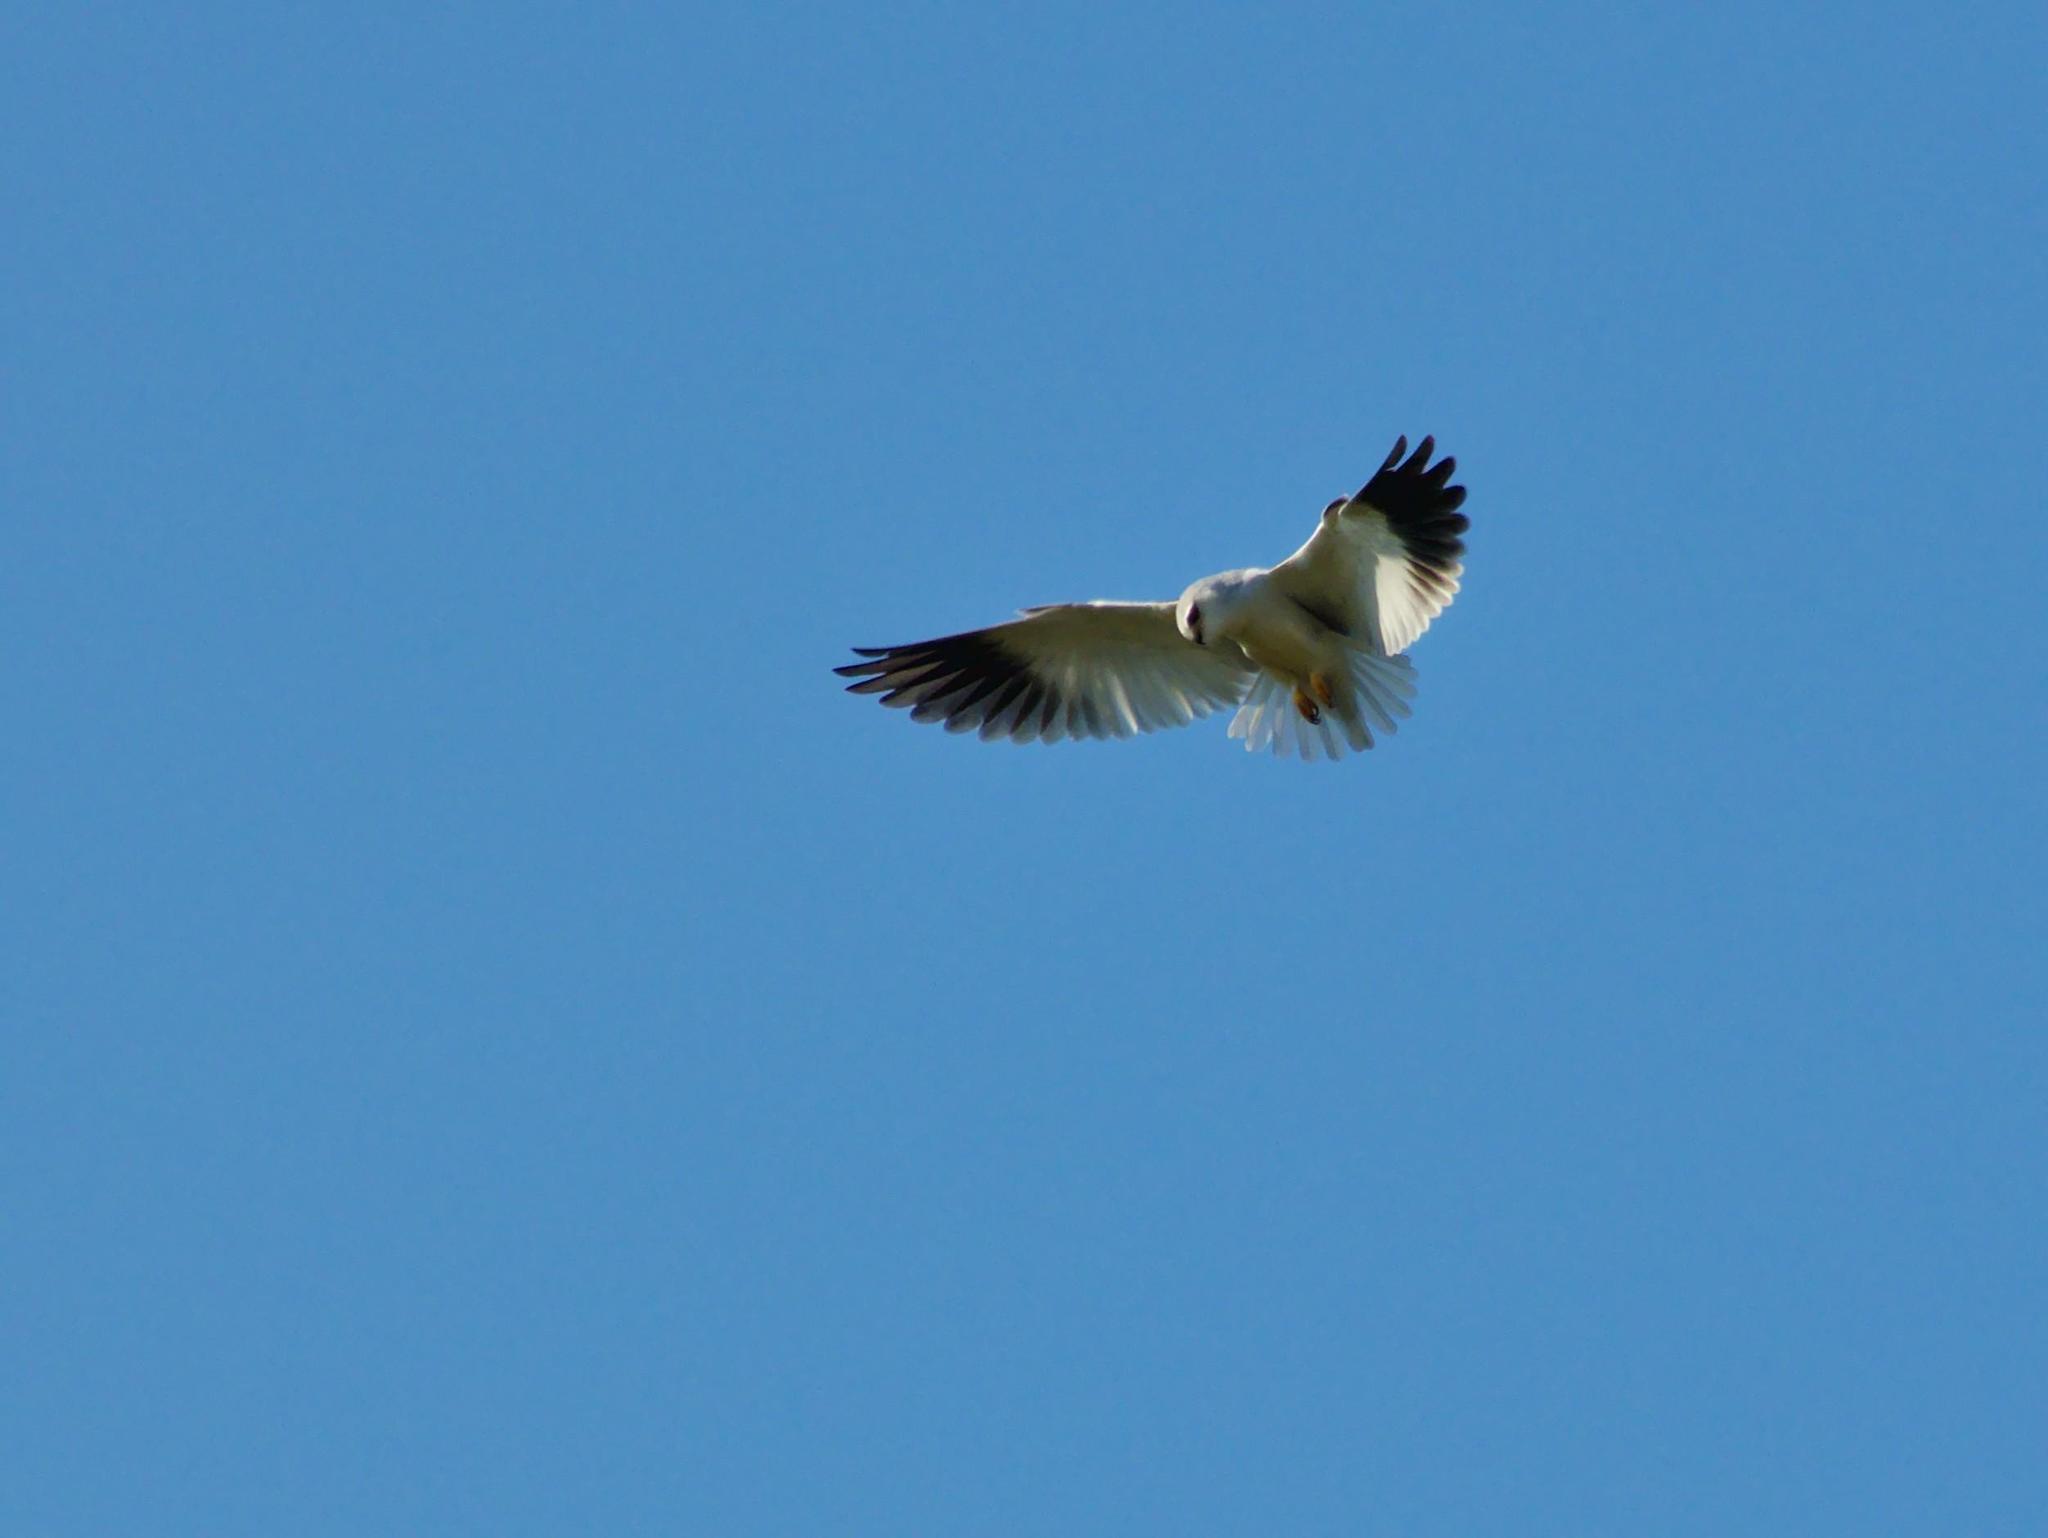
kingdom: Animalia
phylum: Chordata
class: Aves
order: Accipitriformes
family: Accipitridae
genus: Elanus
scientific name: Elanus caeruleus
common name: Black-winged kite
